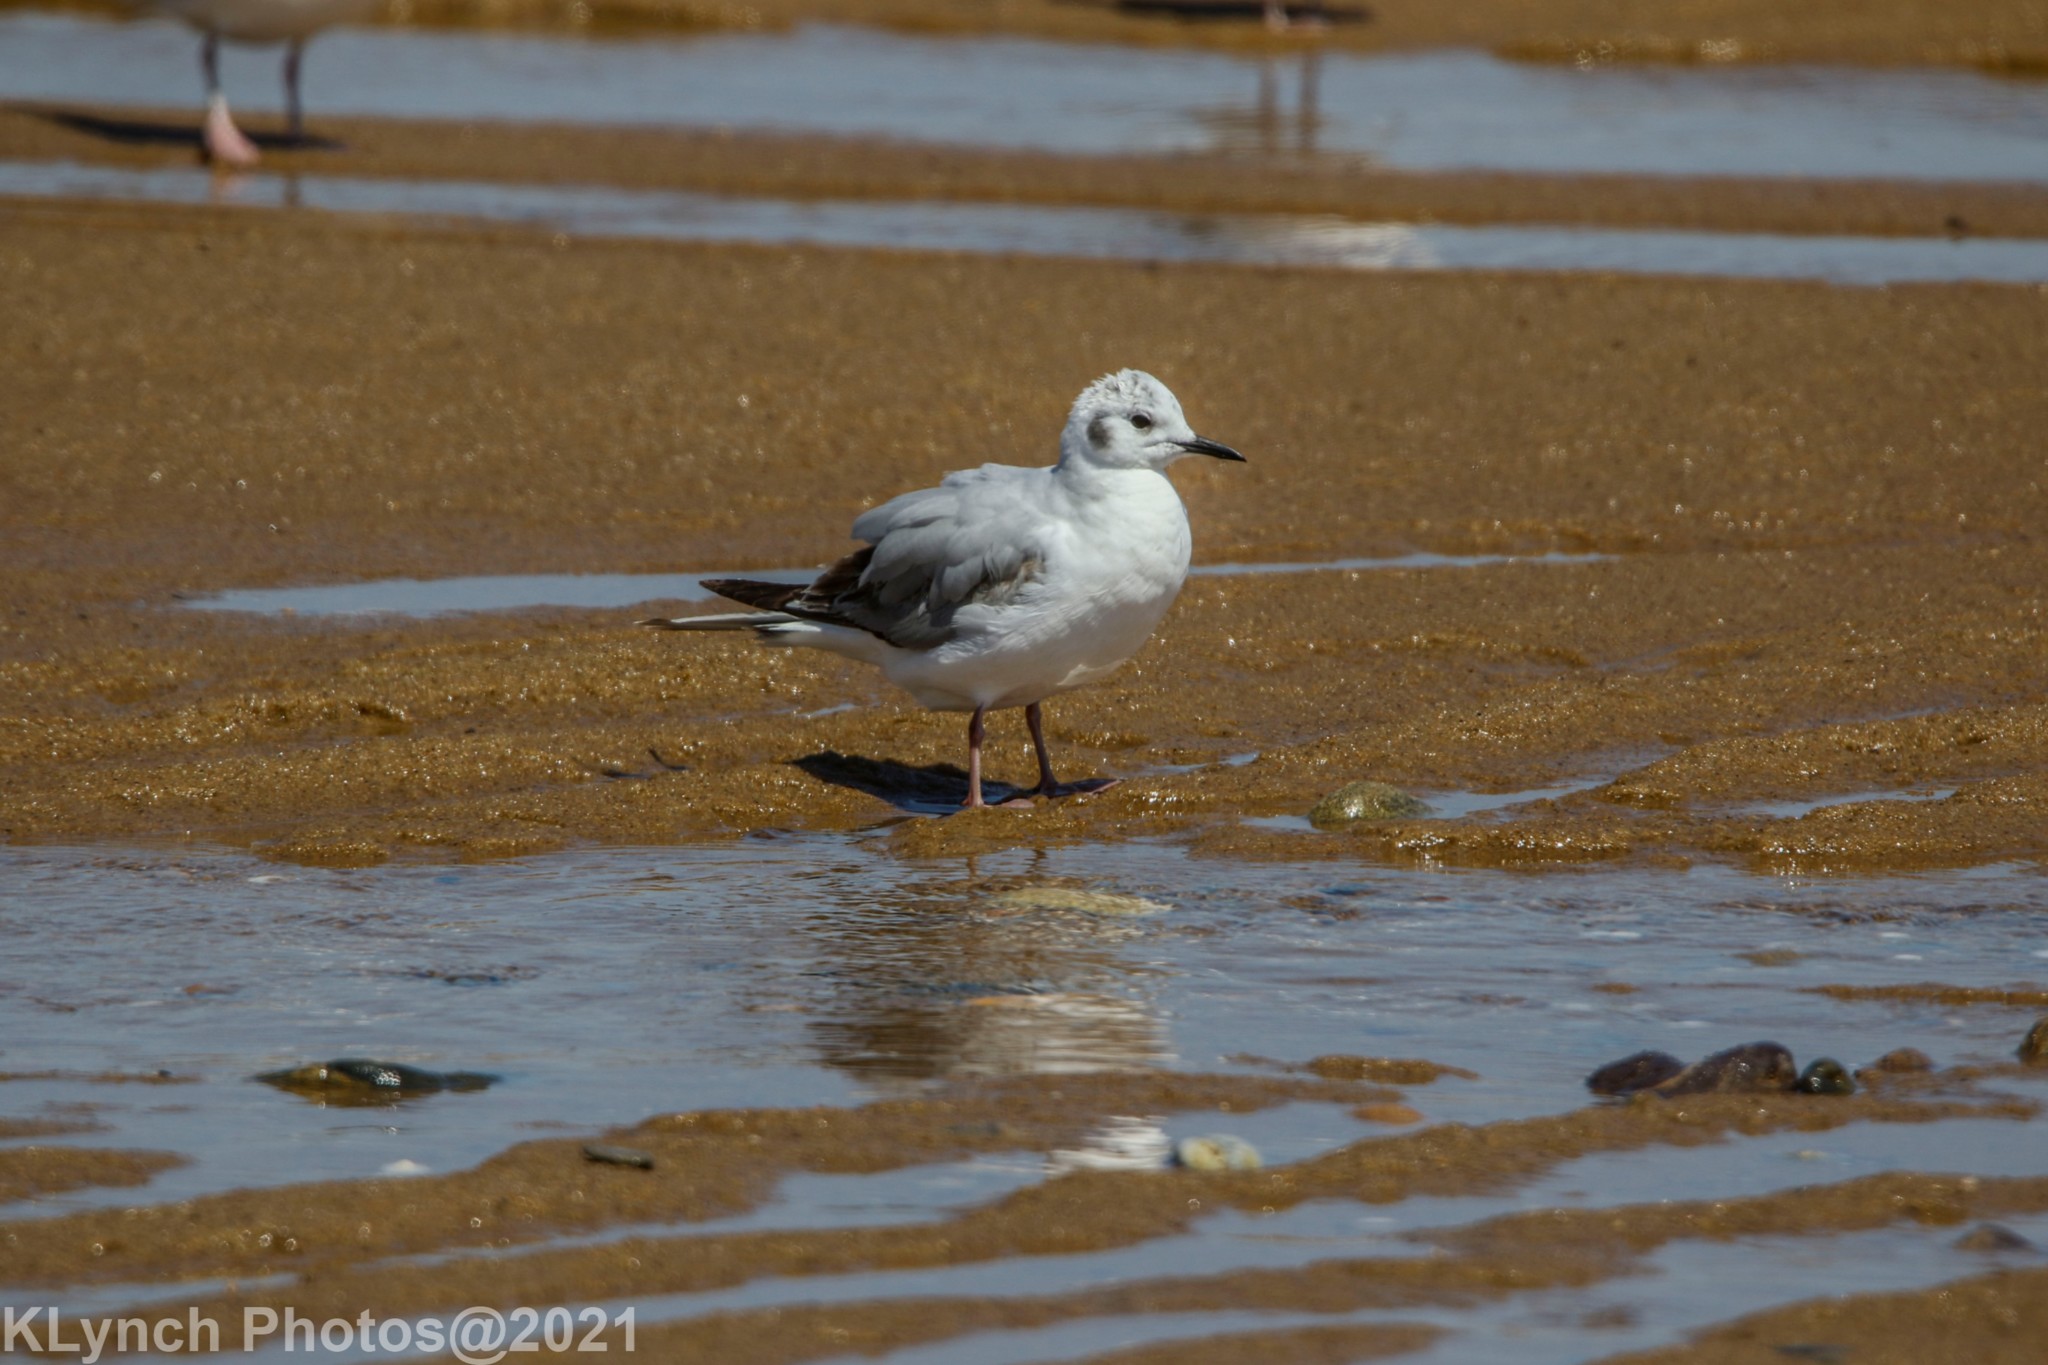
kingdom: Animalia
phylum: Chordata
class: Aves
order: Charadriiformes
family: Laridae
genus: Chroicocephalus
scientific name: Chroicocephalus philadelphia
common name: Bonaparte's gull
